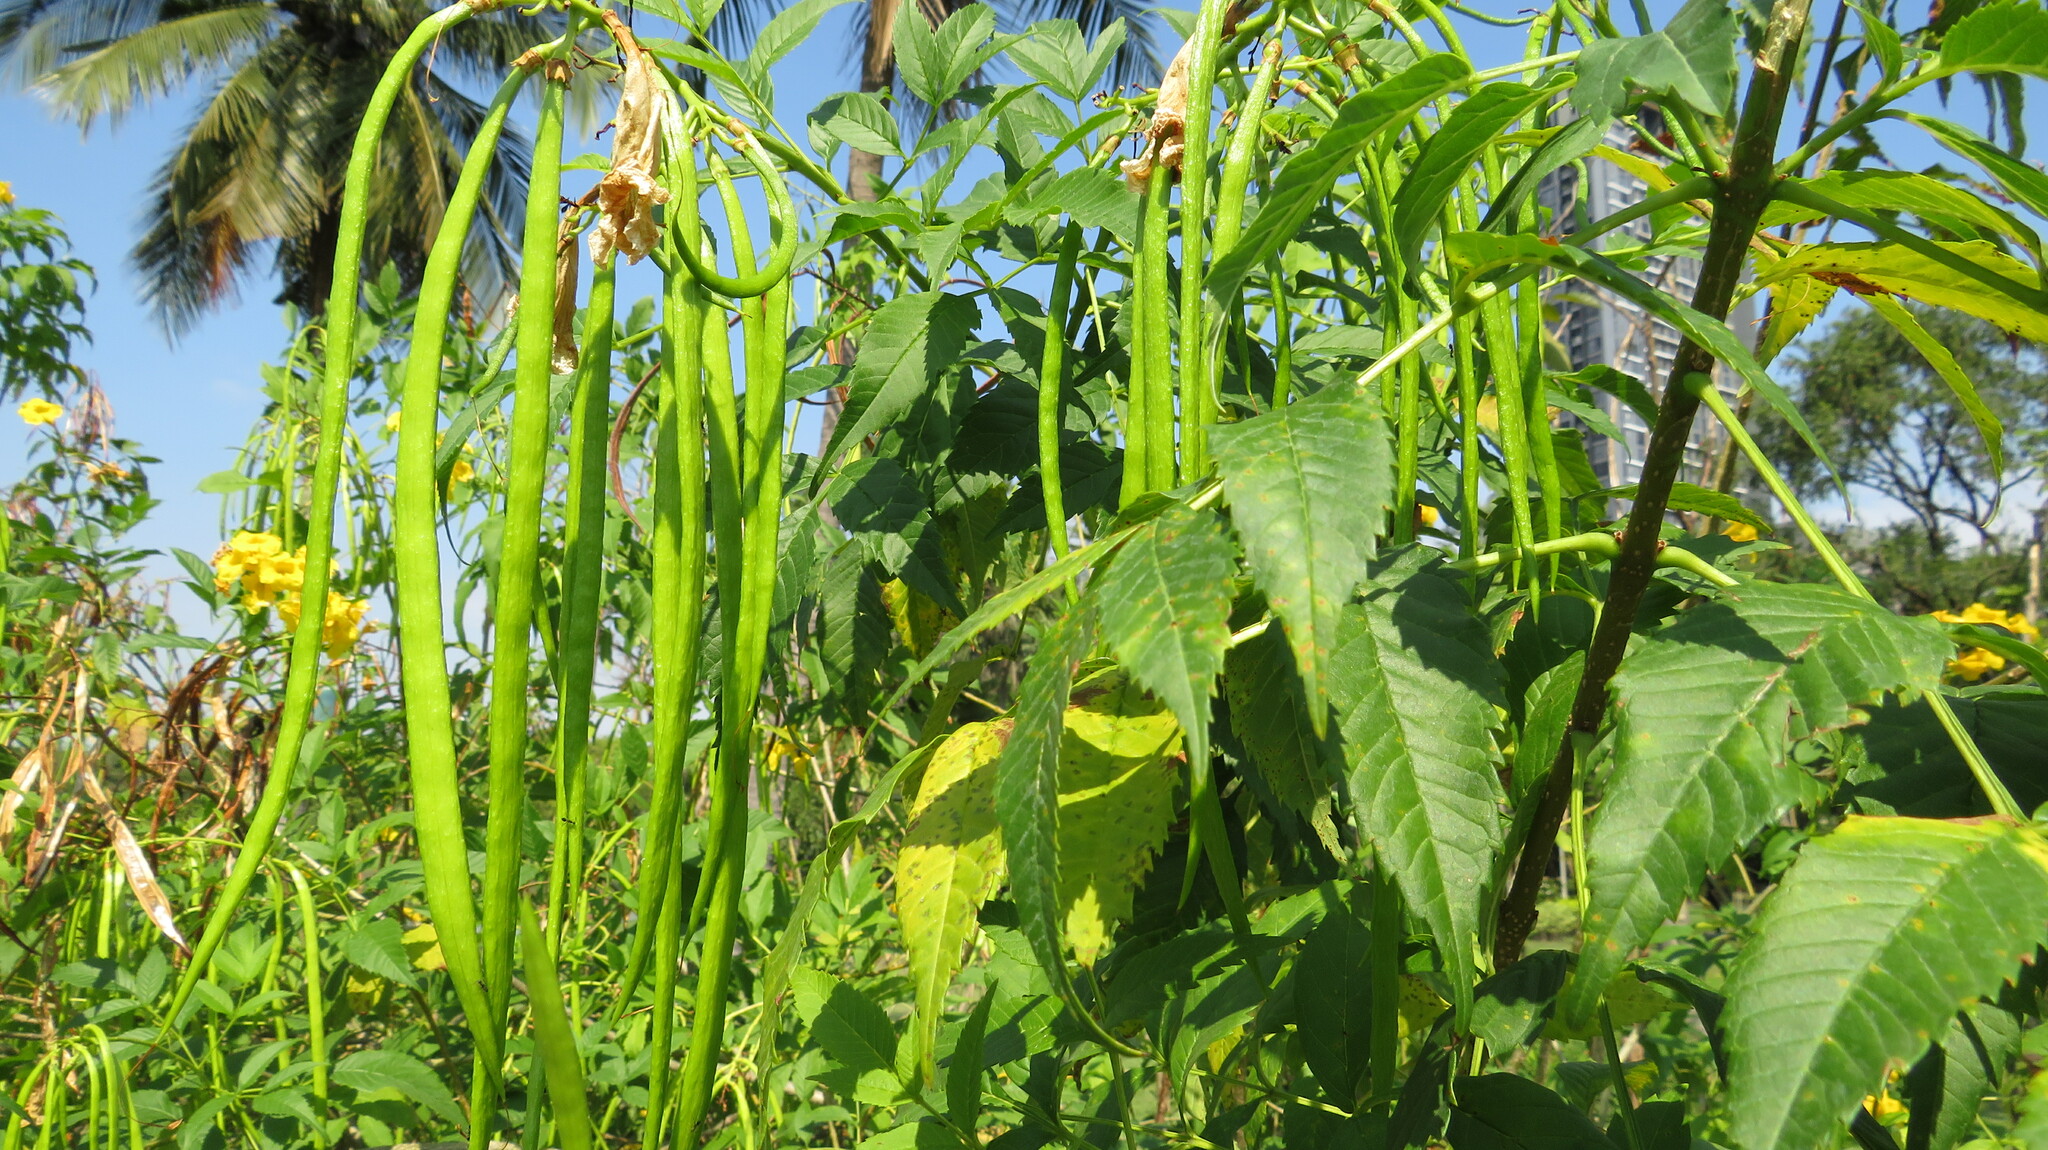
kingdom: Plantae
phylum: Tracheophyta
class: Magnoliopsida
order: Lamiales
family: Bignoniaceae
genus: Tecoma
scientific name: Tecoma stans
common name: Yellow trumpetbush
